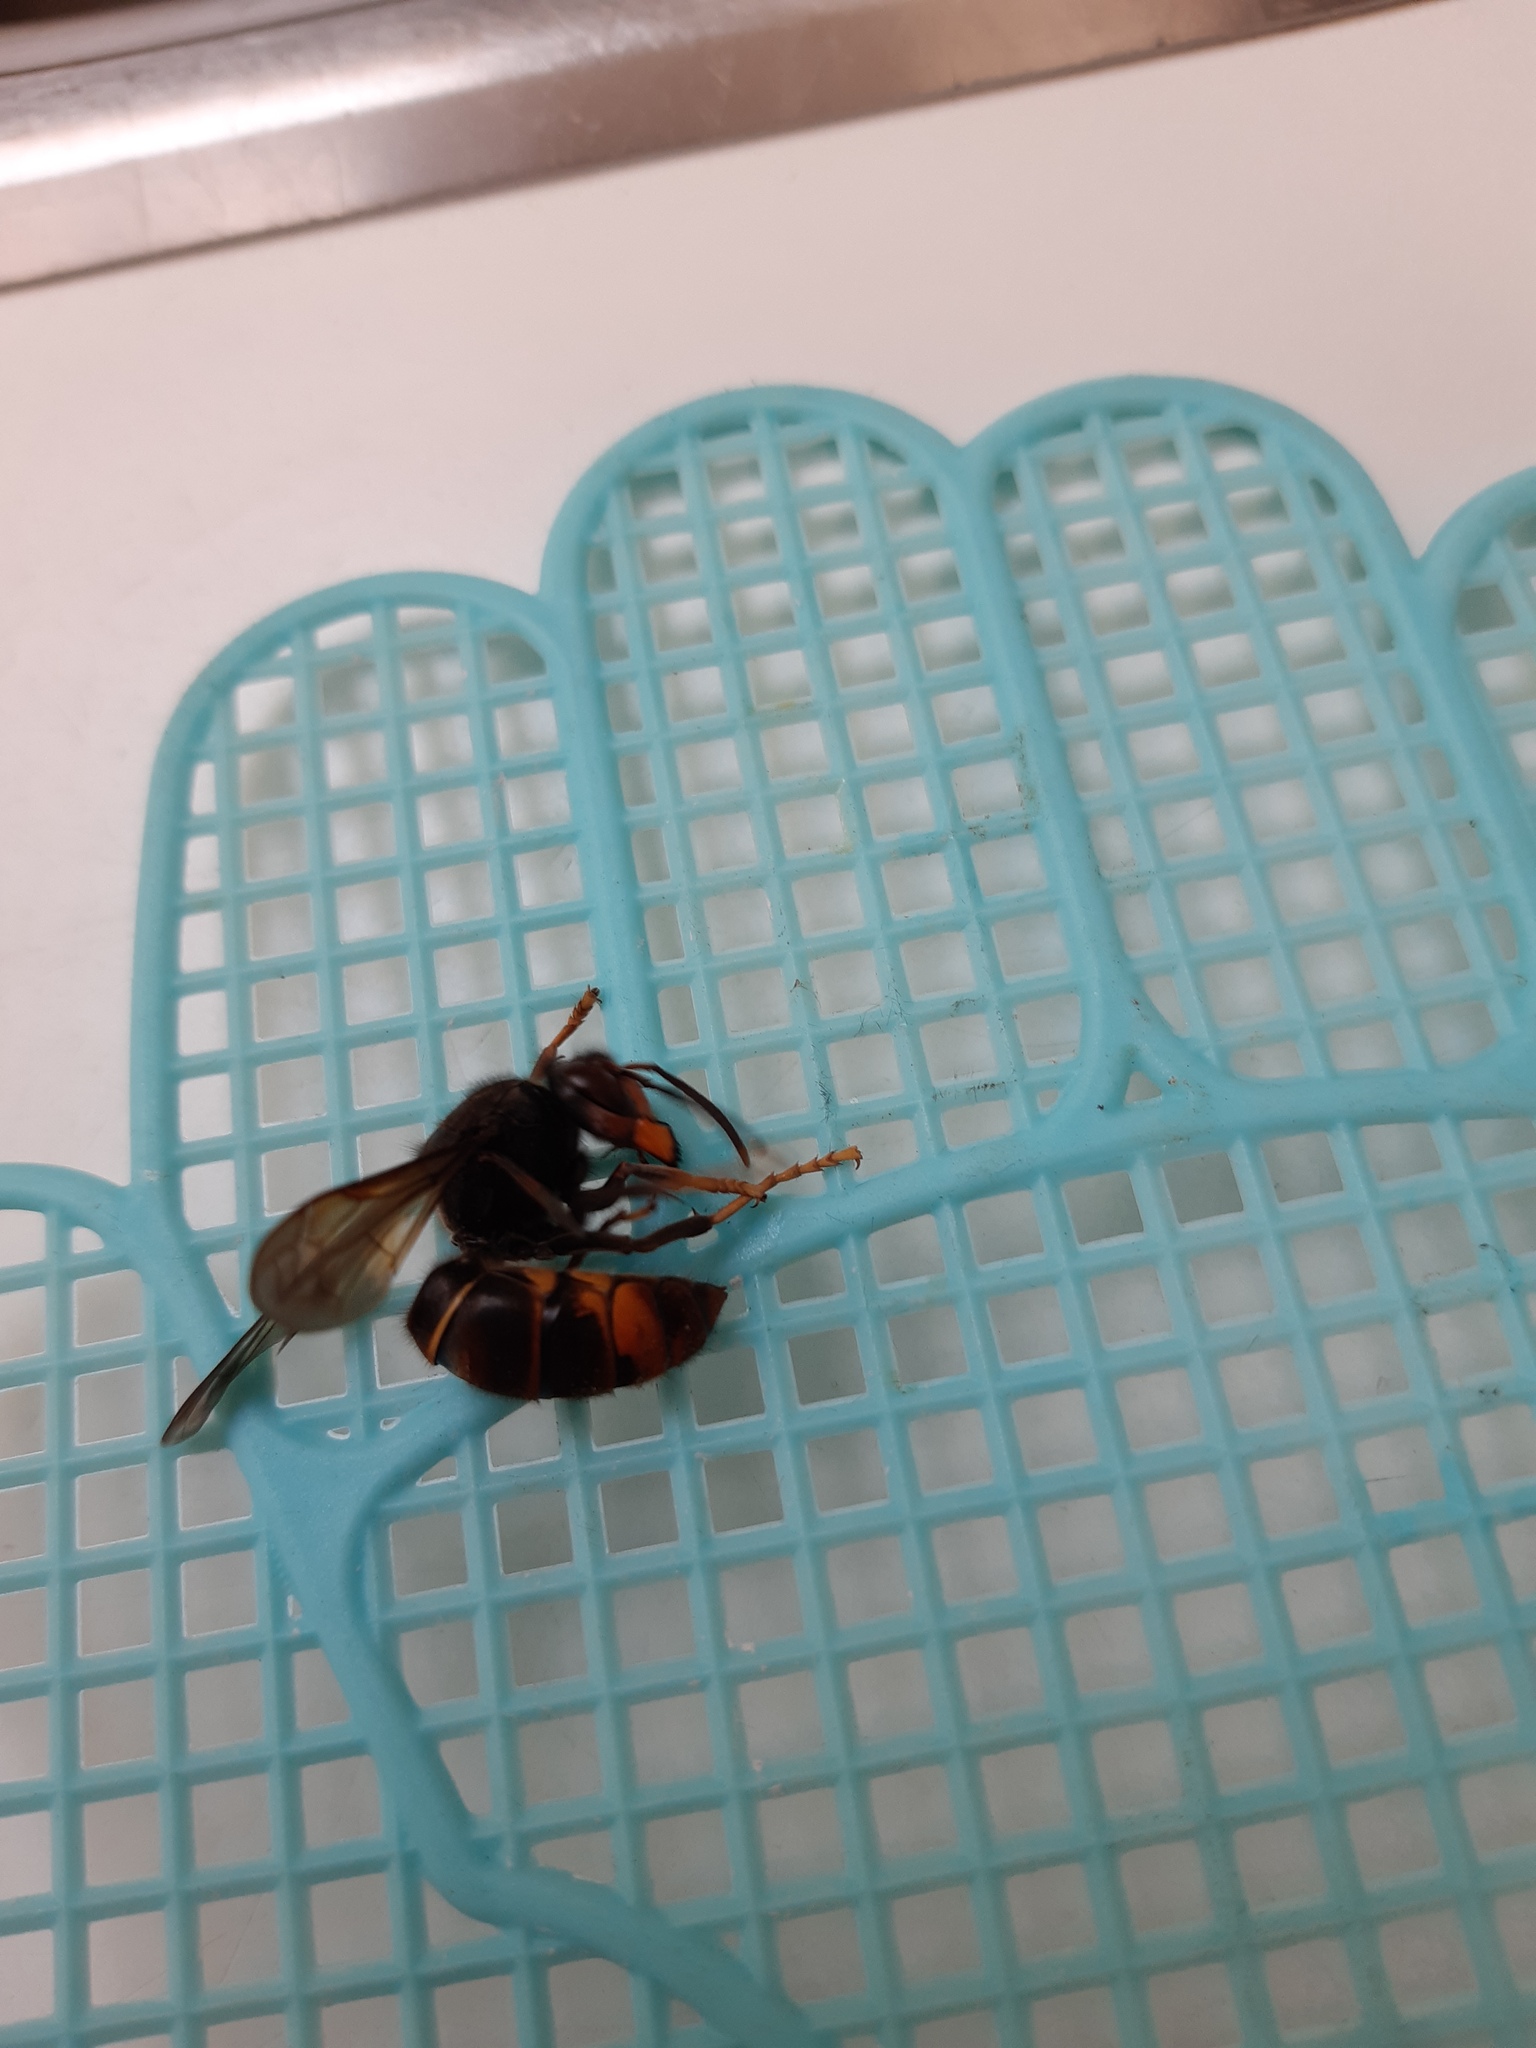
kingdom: Animalia
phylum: Arthropoda
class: Insecta
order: Hymenoptera
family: Vespidae
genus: Vespa
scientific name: Vespa velutina
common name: Asian hornet
